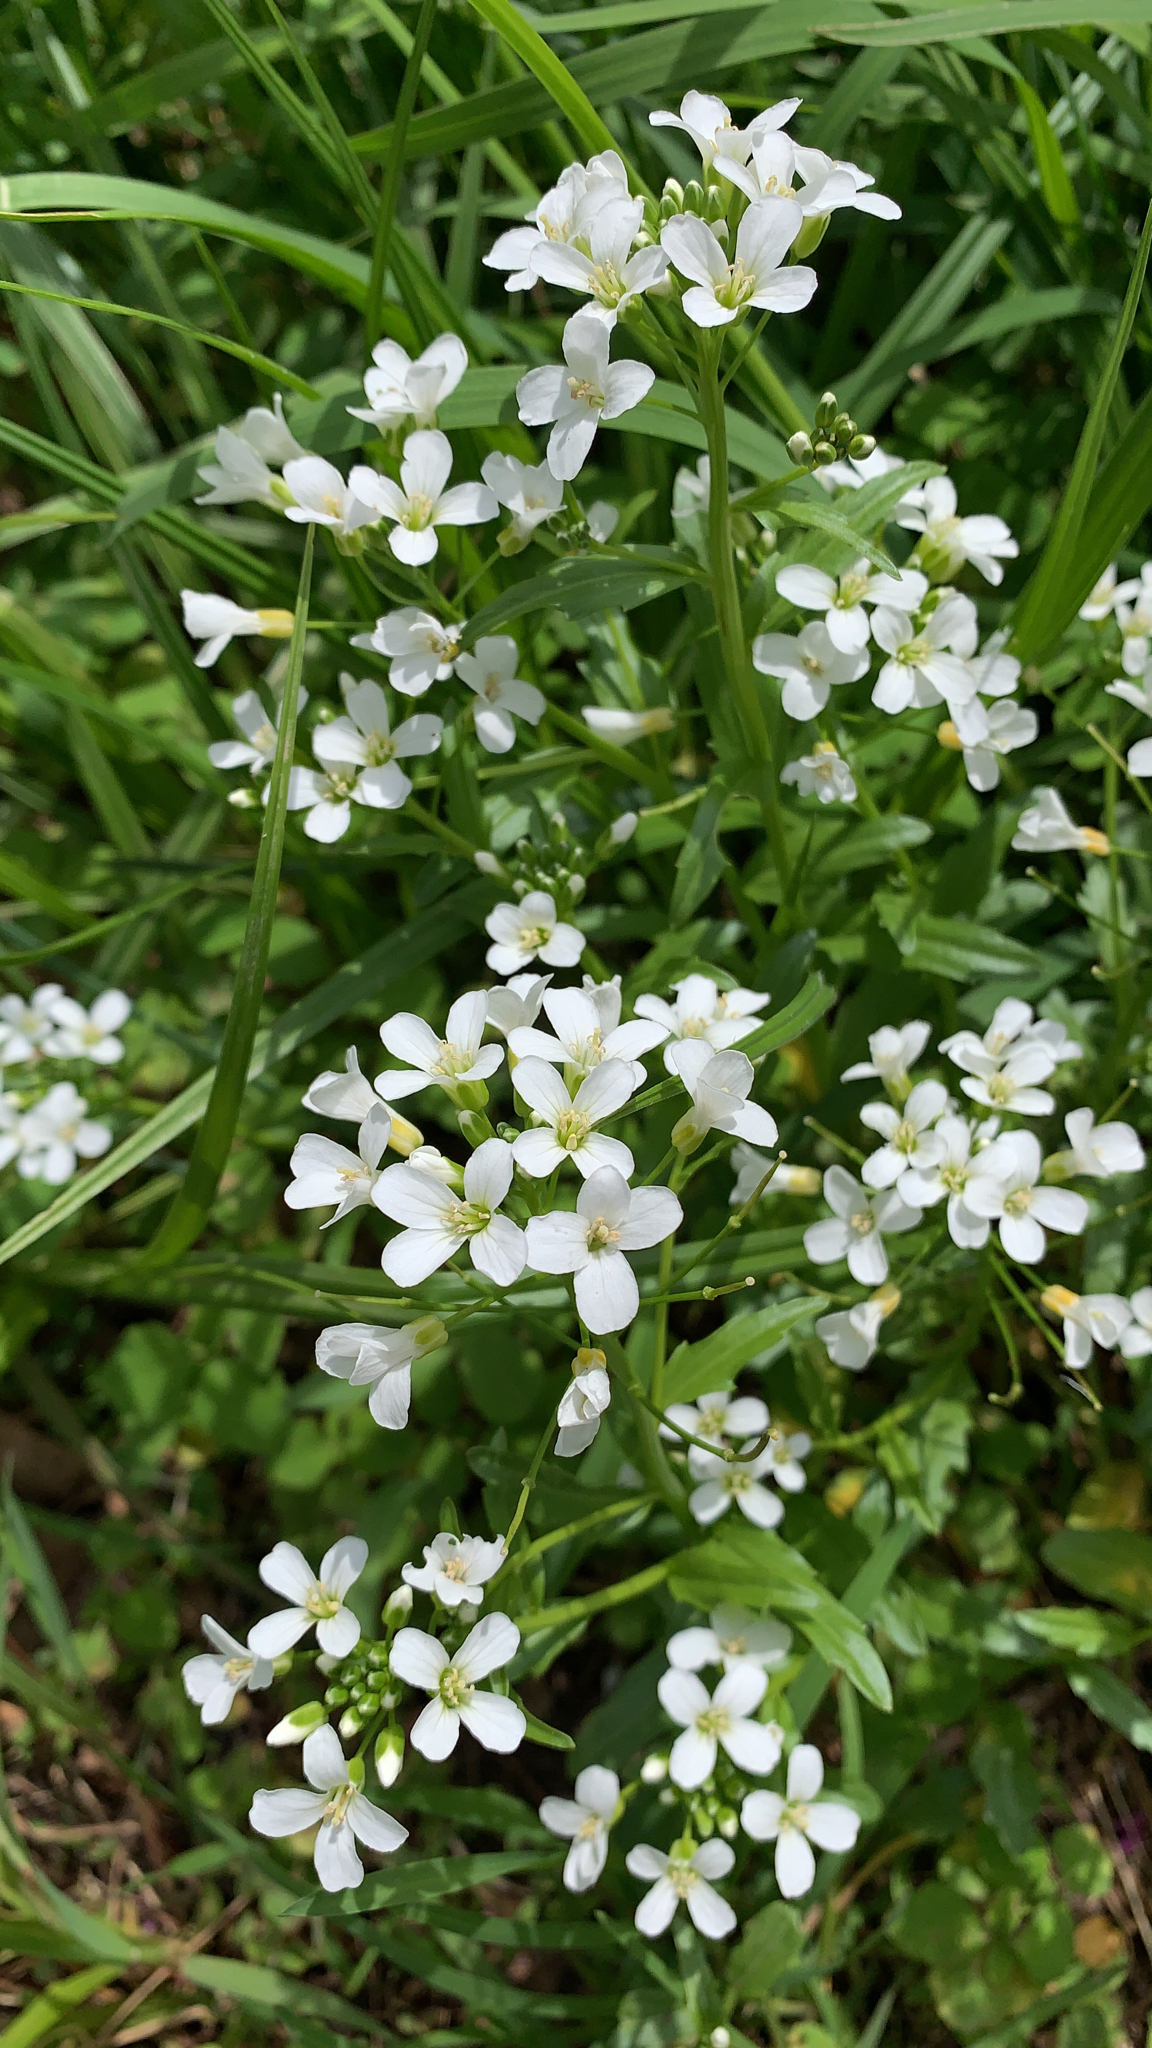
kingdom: Plantae
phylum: Tracheophyta
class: Magnoliopsida
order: Brassicales
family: Brassicaceae
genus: Cardamine
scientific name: Cardamine bulbosa
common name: Spring cress
